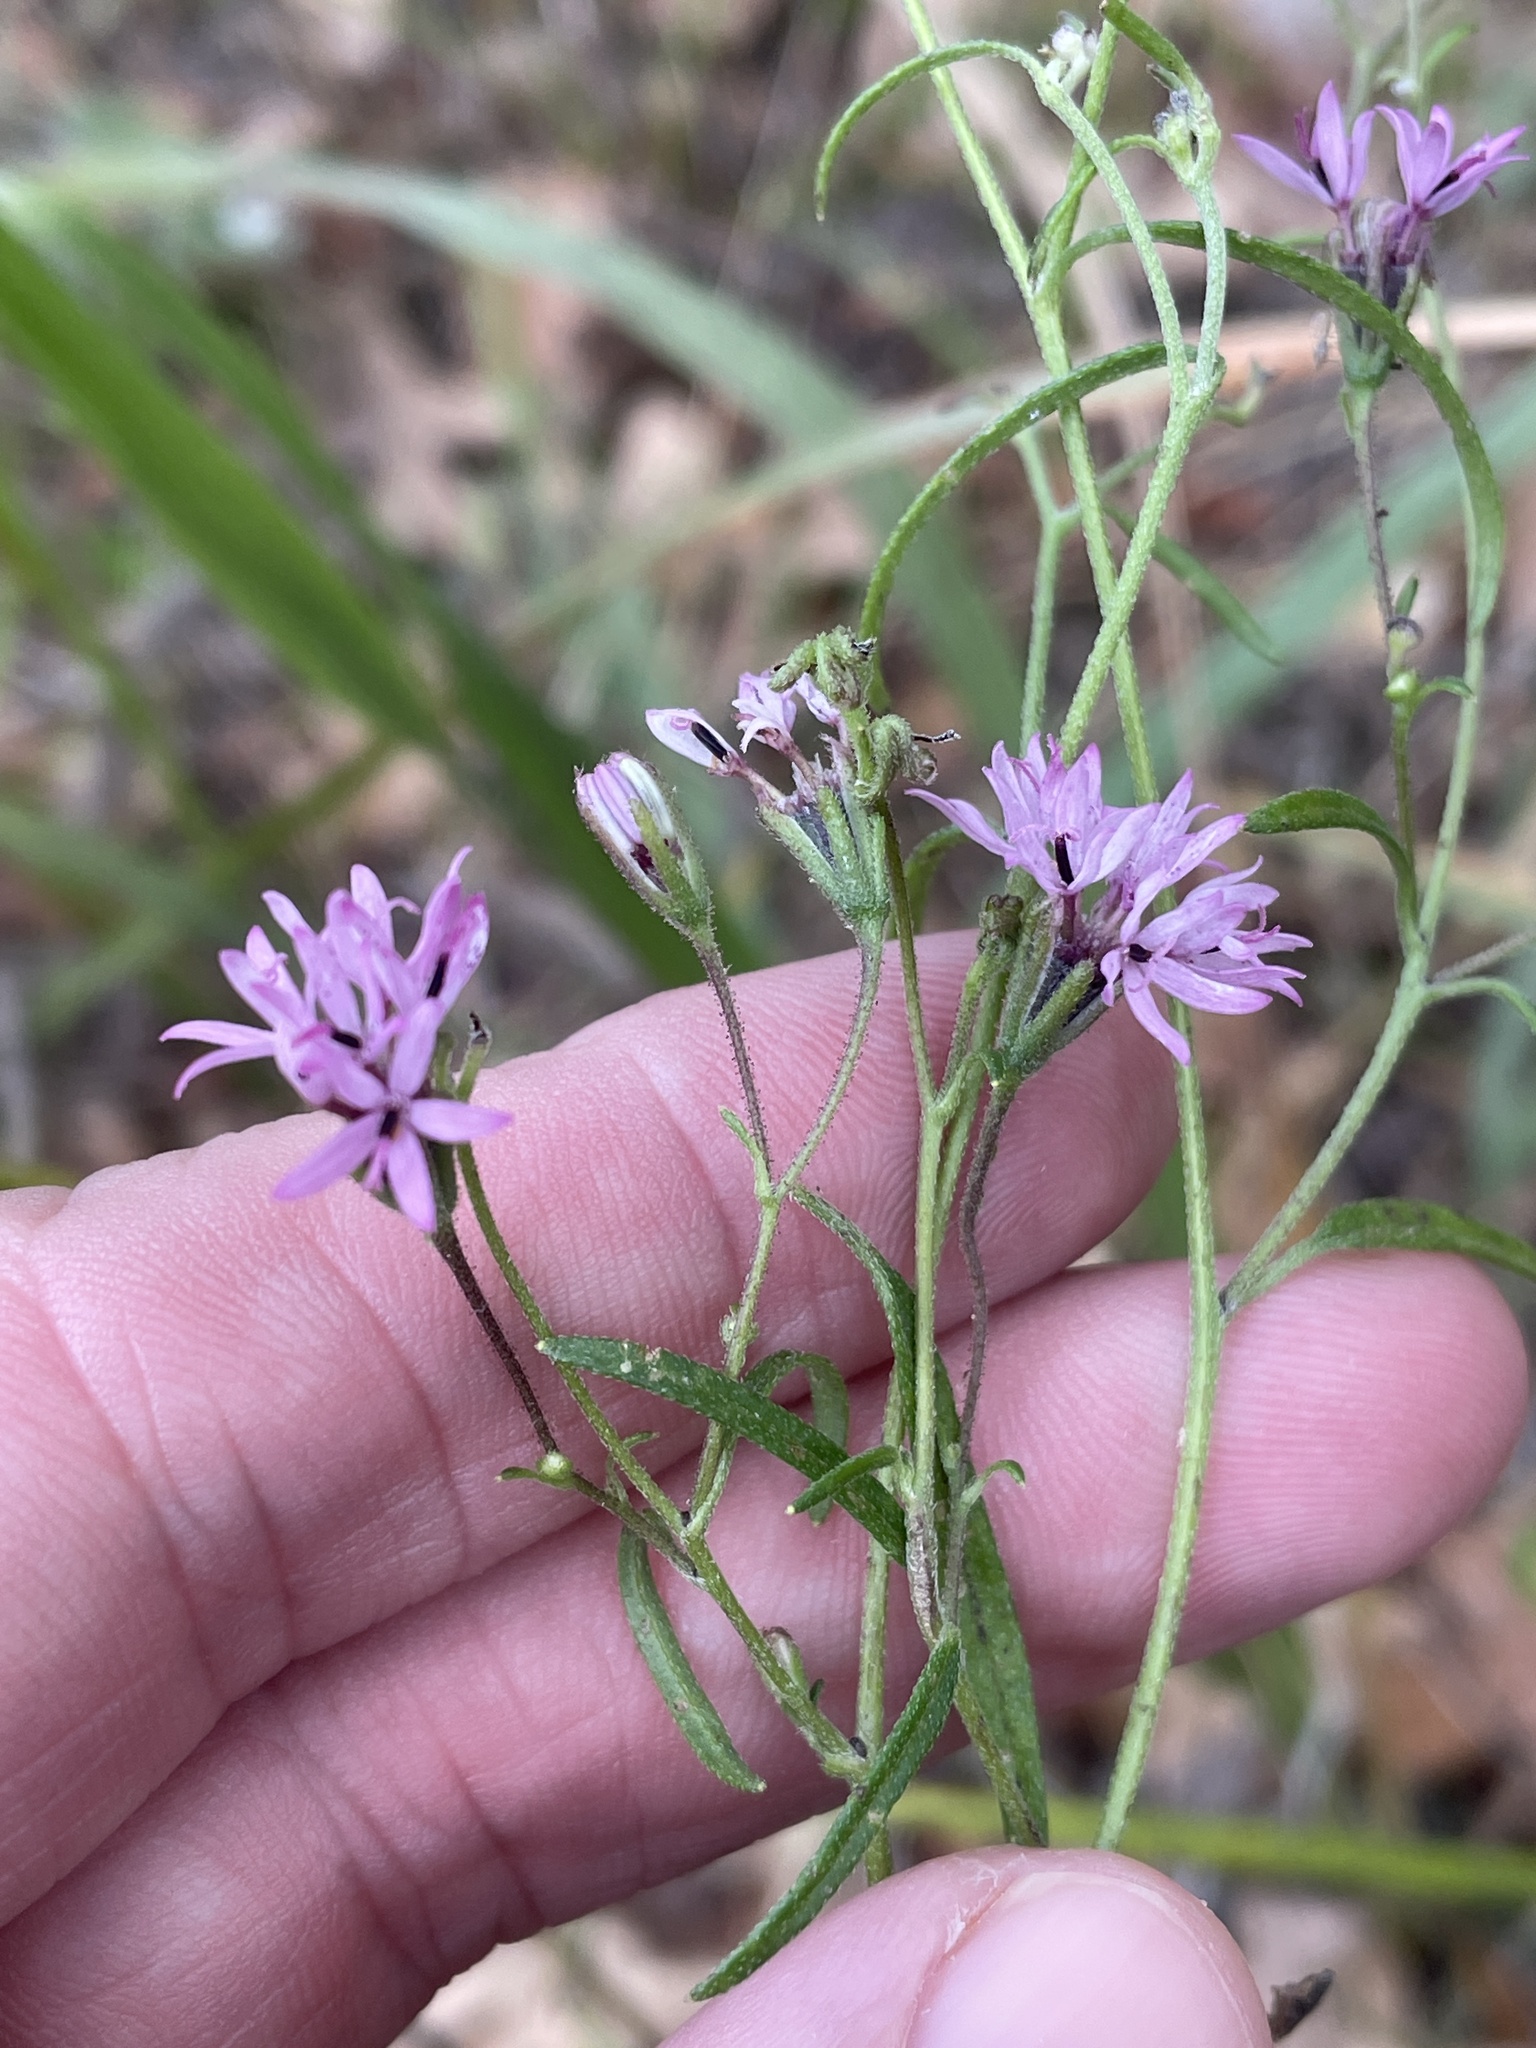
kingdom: Plantae
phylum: Tracheophyta
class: Magnoliopsida
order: Asterales
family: Asteraceae
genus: Palafoxia
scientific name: Palafoxia callosa
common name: Small palafox
